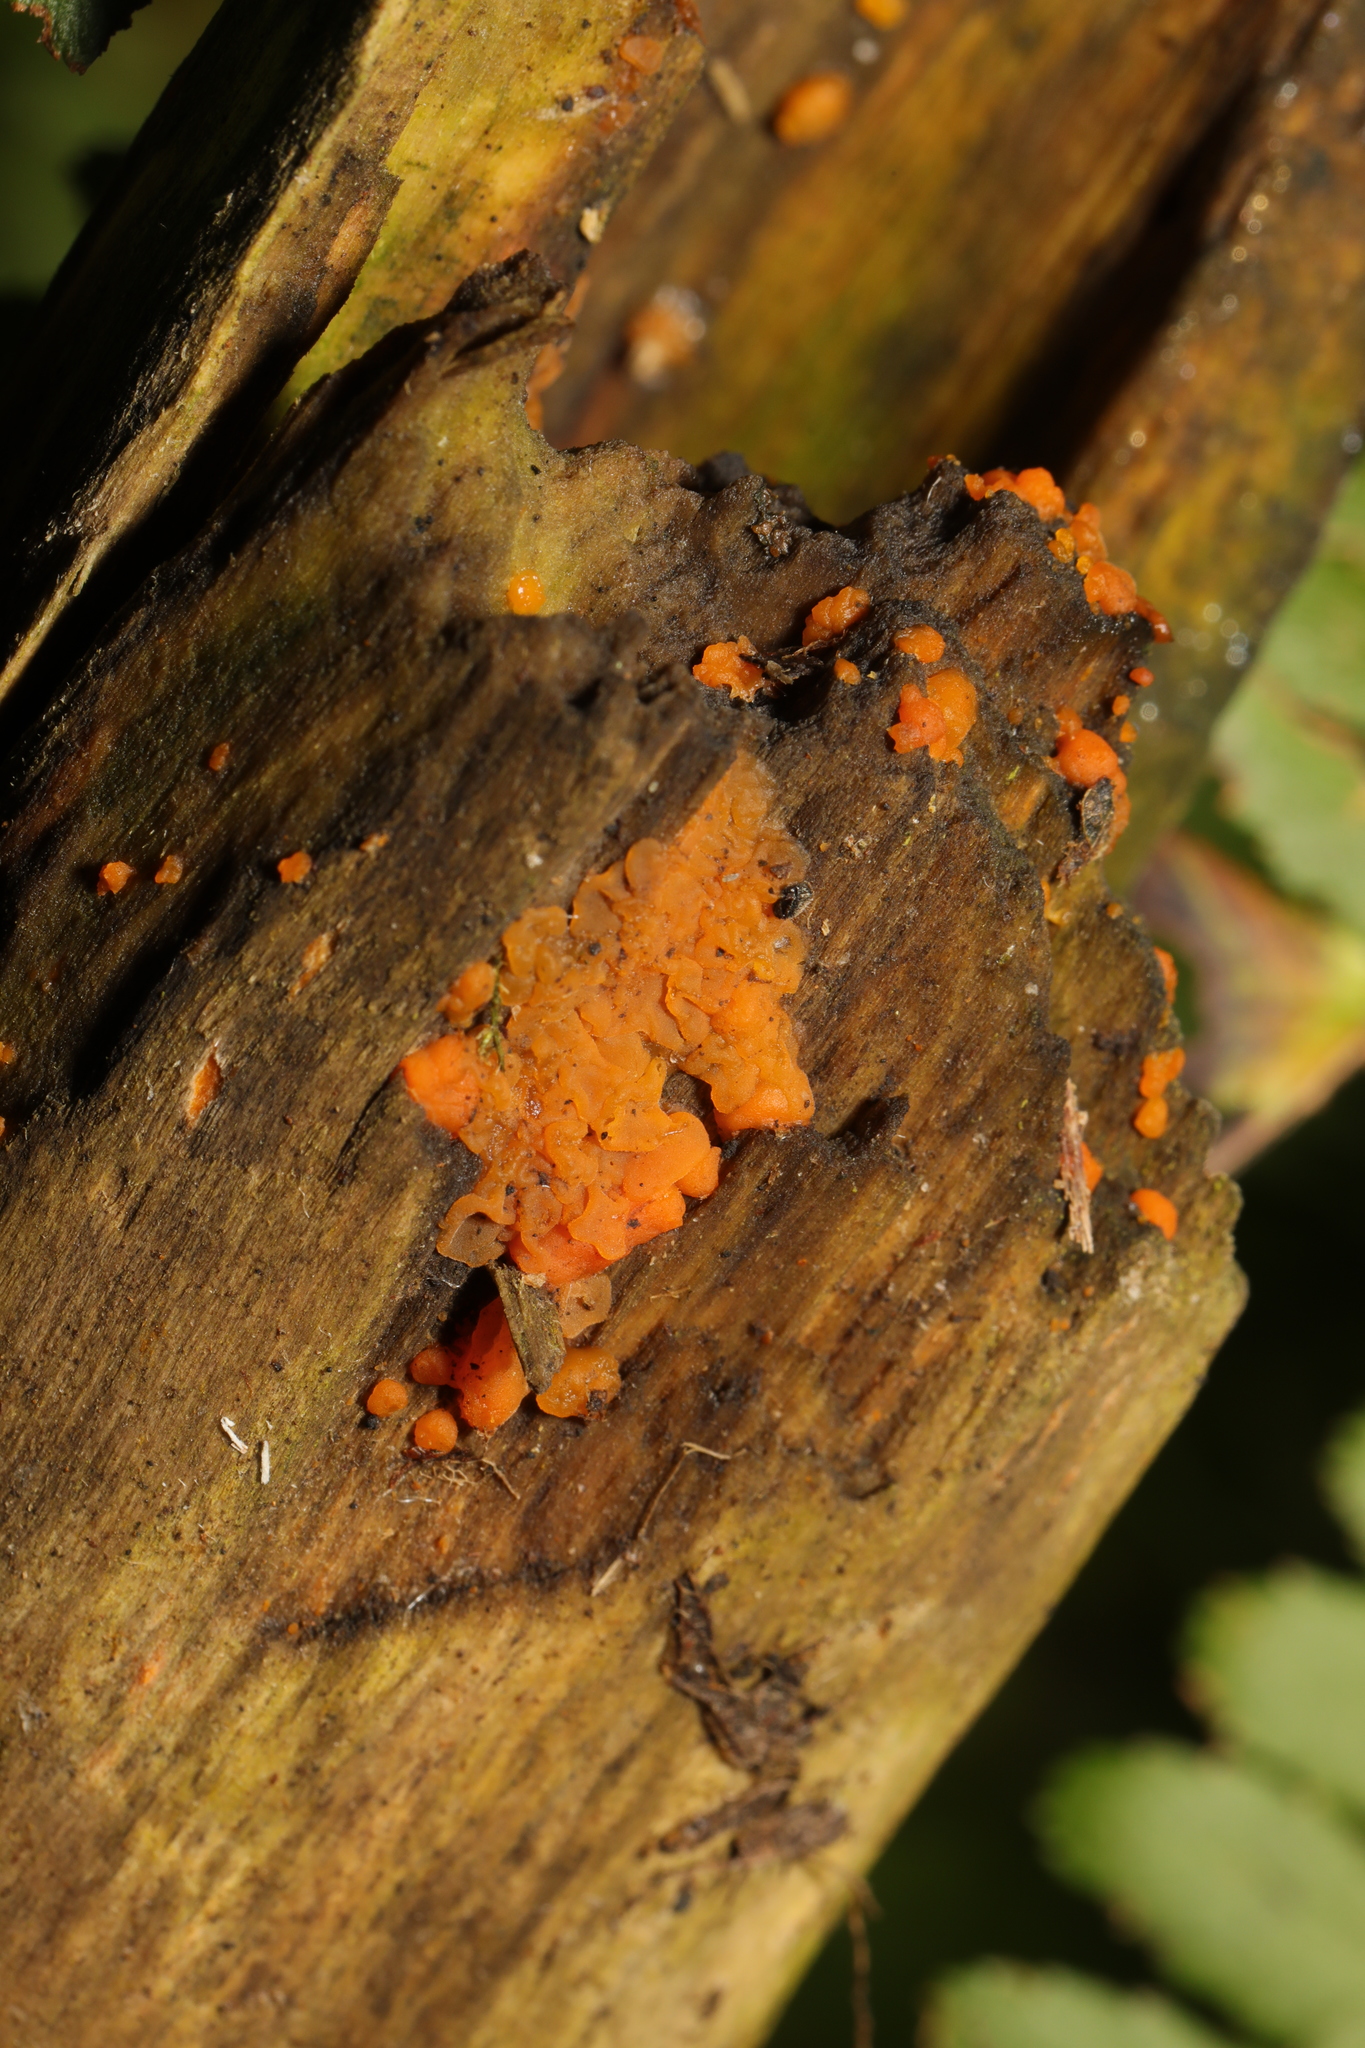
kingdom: Fungi
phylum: Basidiomycota
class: Dacrymycetes
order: Dacrymycetales
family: Dacrymycetaceae
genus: Dacrymyces
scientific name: Dacrymyces stillatus
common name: Common jelly spot
